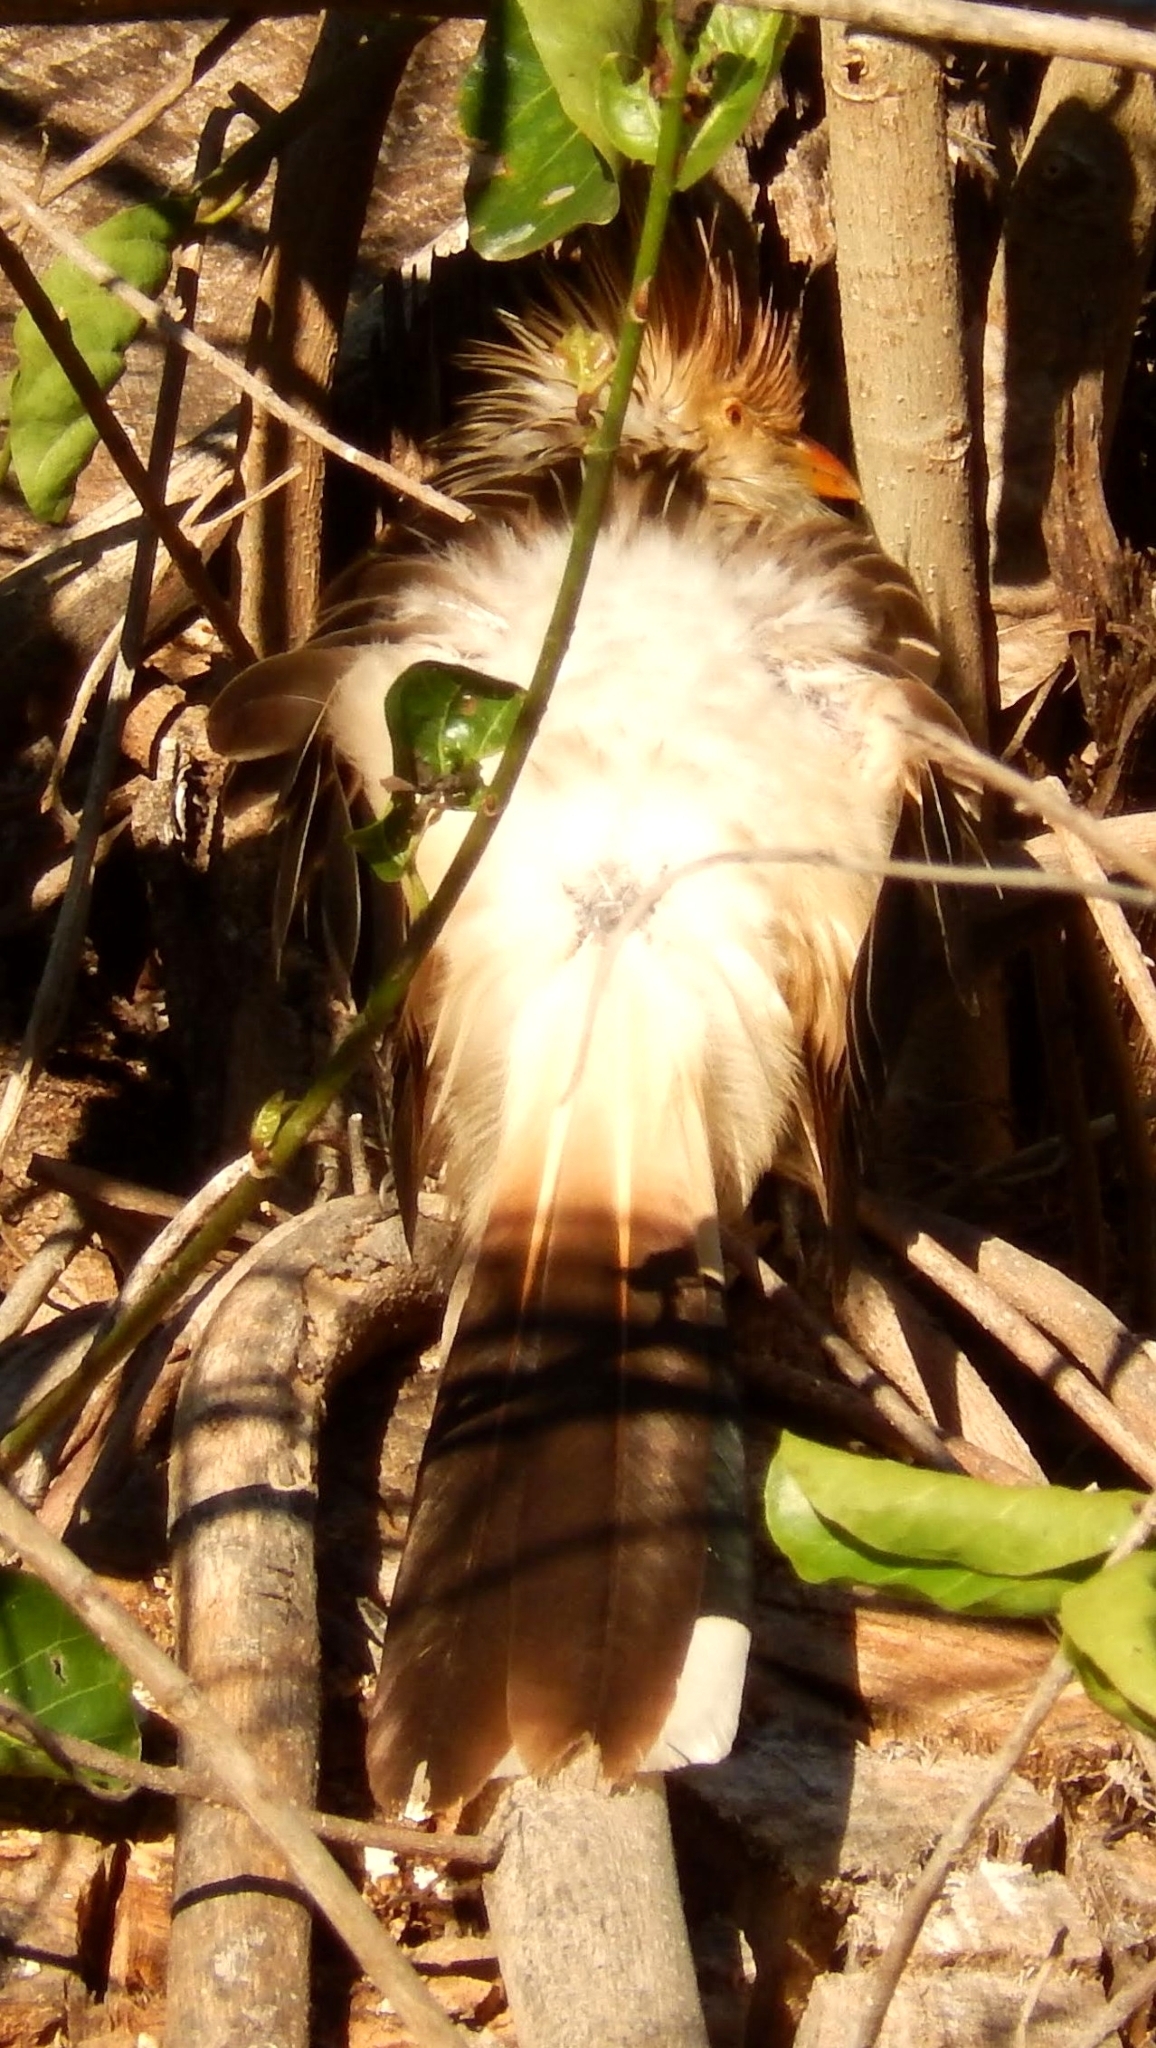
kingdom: Animalia
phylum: Chordata
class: Aves
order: Cuculiformes
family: Cuculidae
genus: Guira
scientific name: Guira guira
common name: Guira cuckoo
